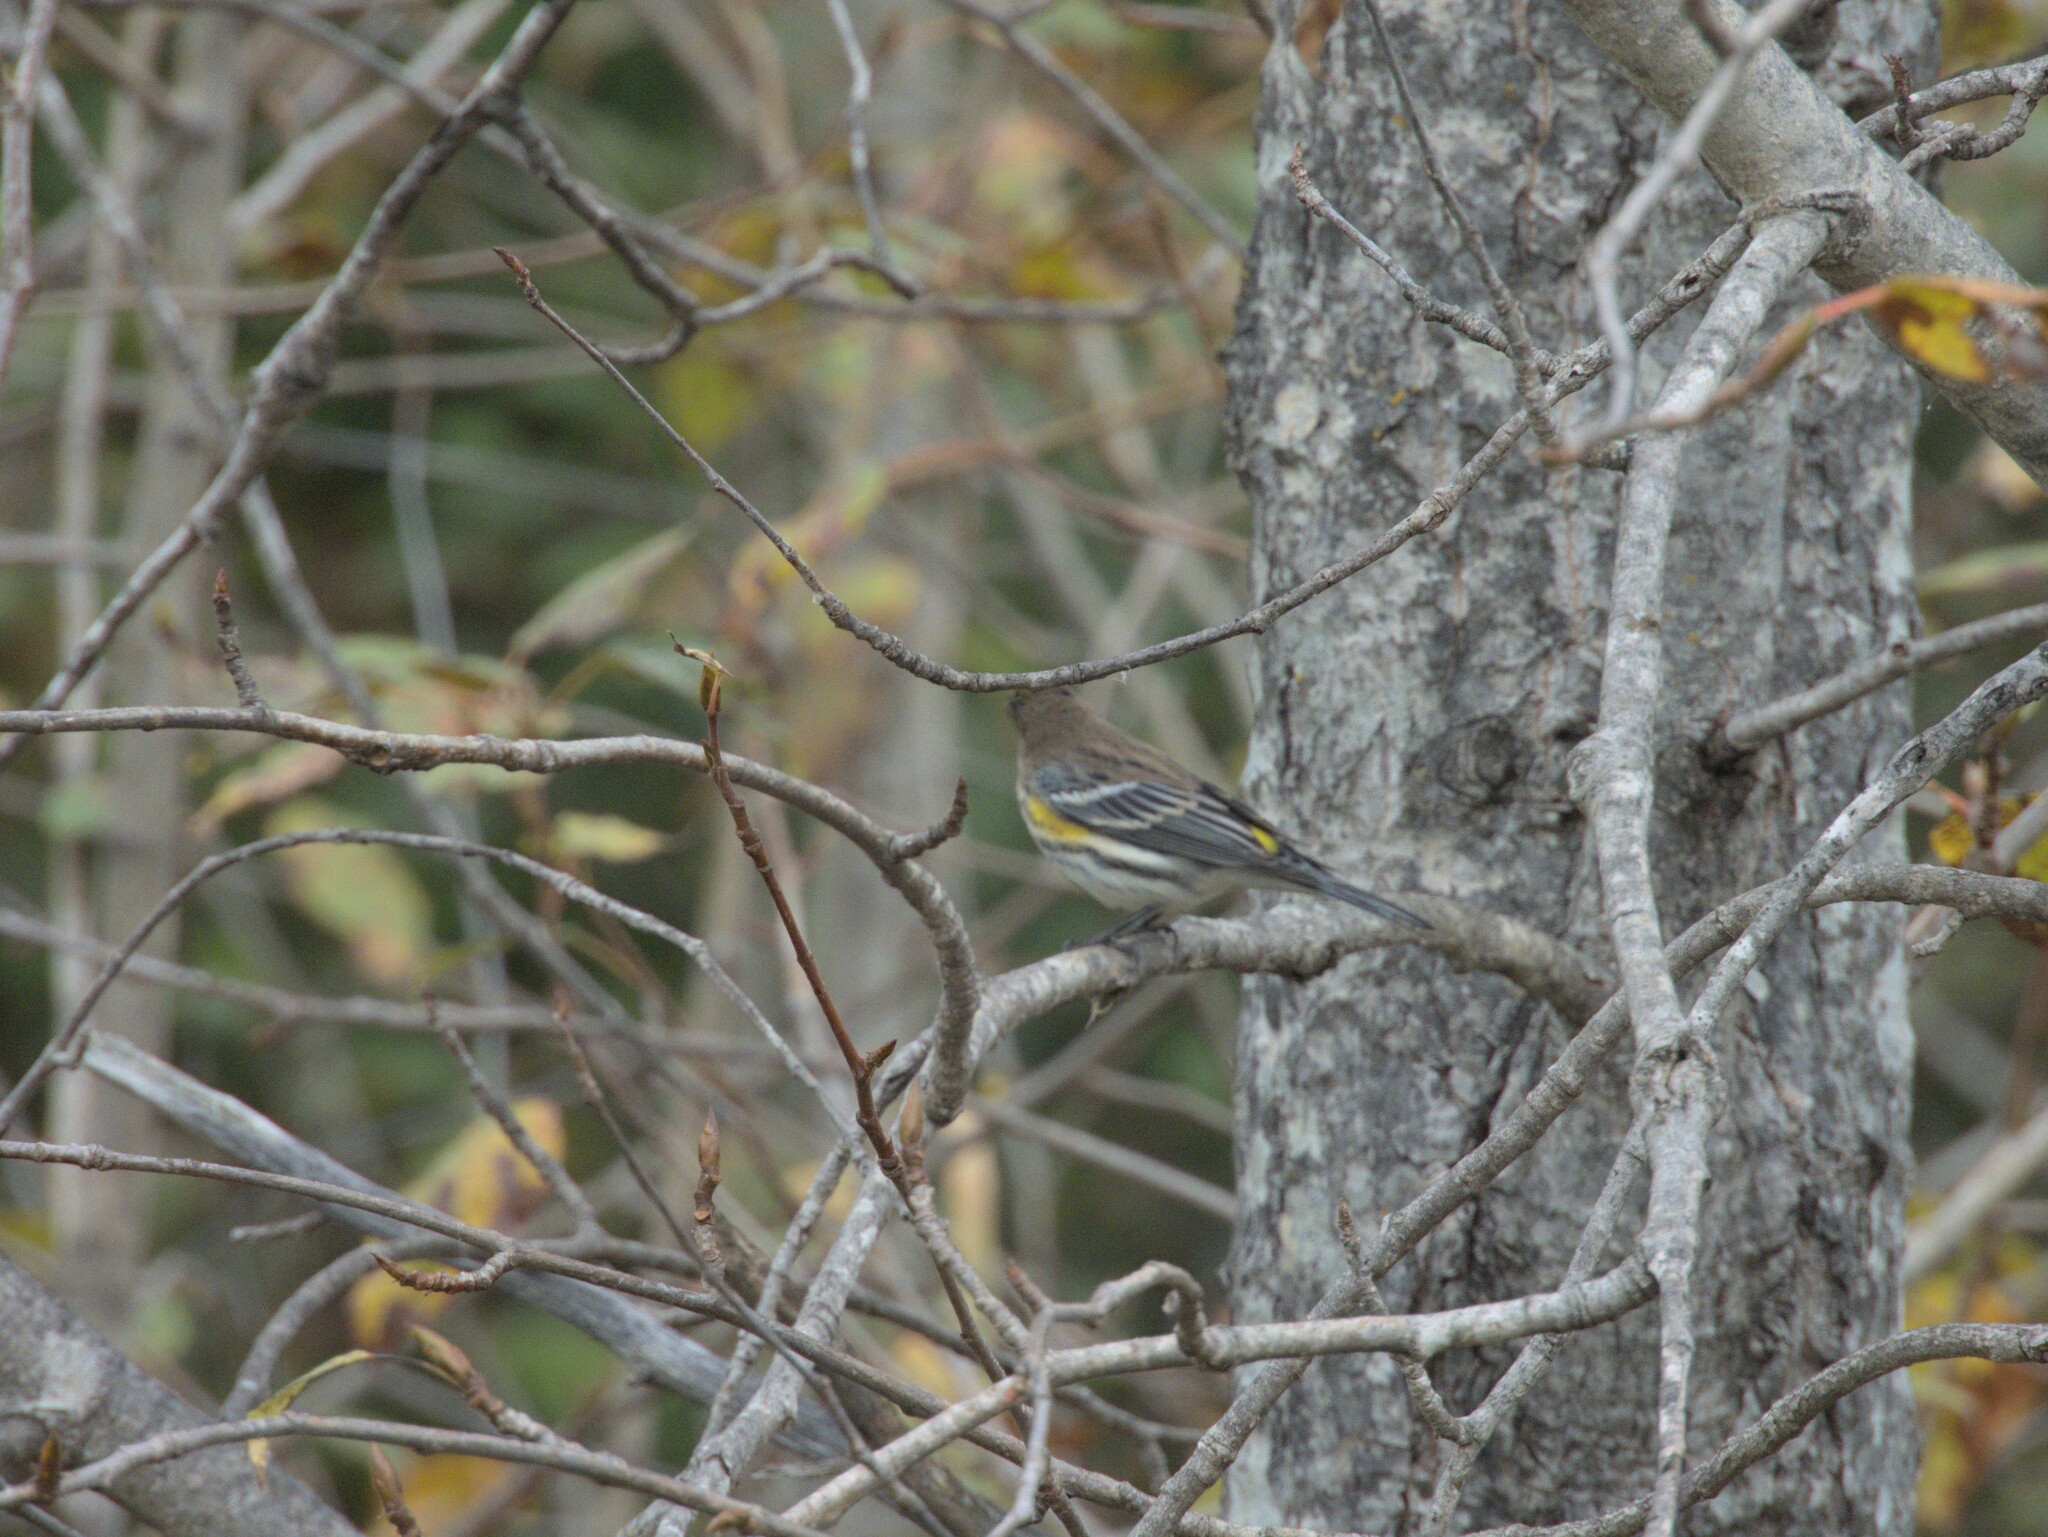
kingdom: Animalia
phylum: Chordata
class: Aves
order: Passeriformes
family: Parulidae
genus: Setophaga
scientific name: Setophaga coronata
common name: Myrtle warbler
